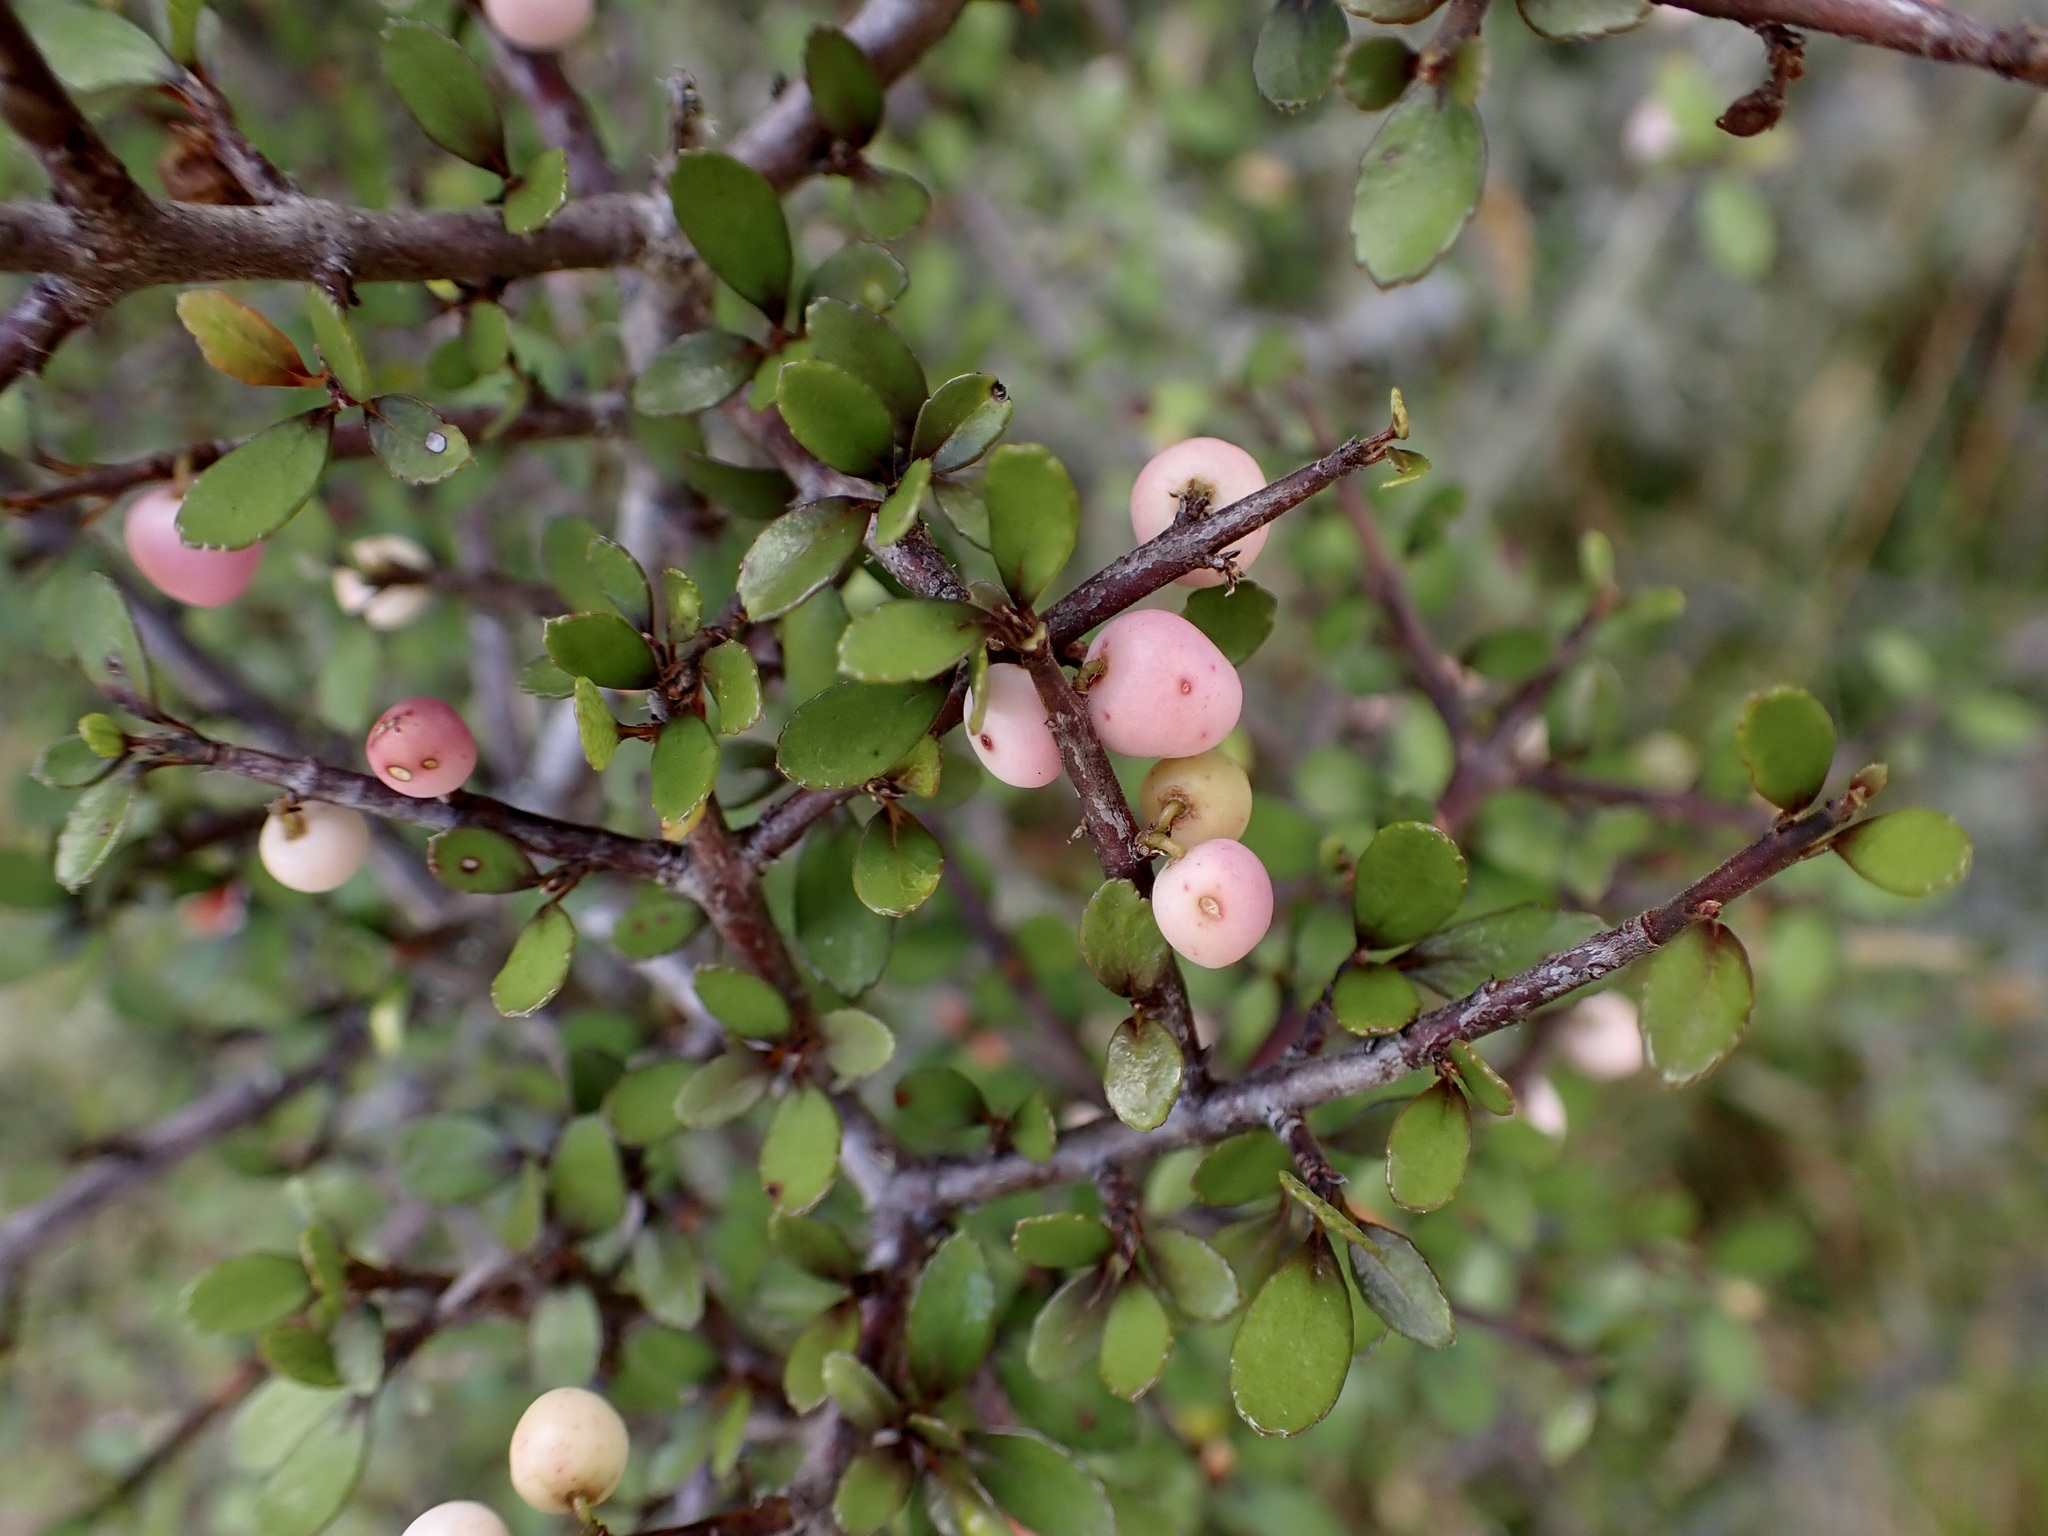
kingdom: Plantae
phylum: Tracheophyta
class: Magnoliopsida
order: Oxalidales
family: Elaeocarpaceae
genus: Aristotelia
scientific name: Aristotelia fruticosa
